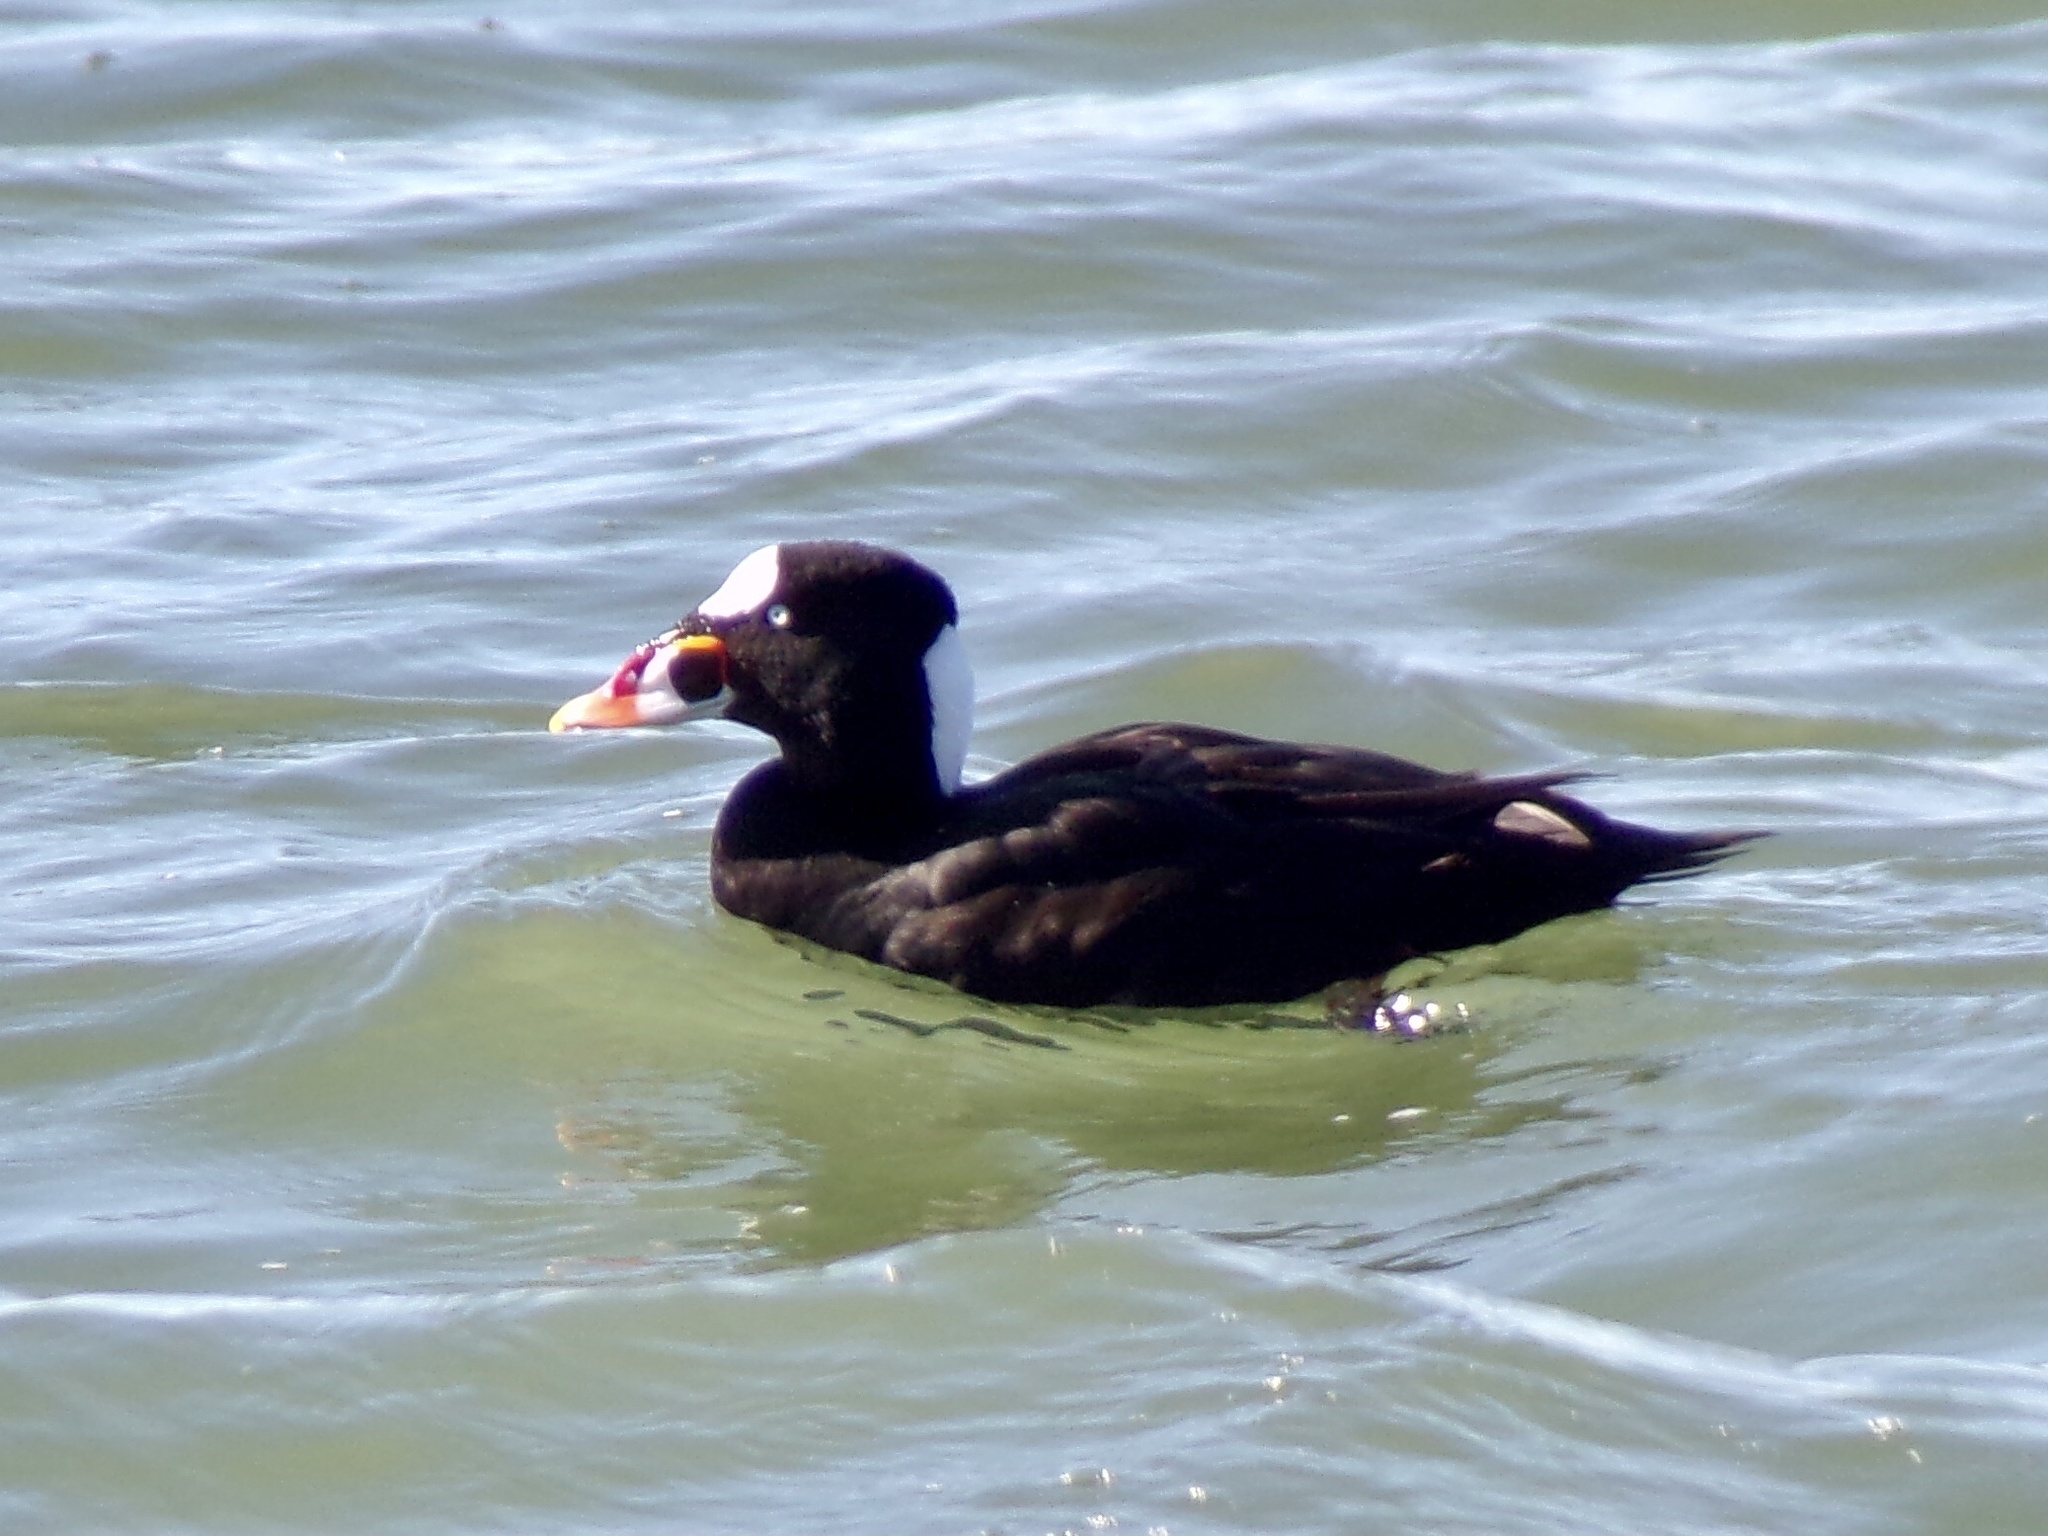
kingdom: Animalia
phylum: Chordata
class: Aves
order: Anseriformes
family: Anatidae
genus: Melanitta
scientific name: Melanitta perspicillata
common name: Surf scoter
